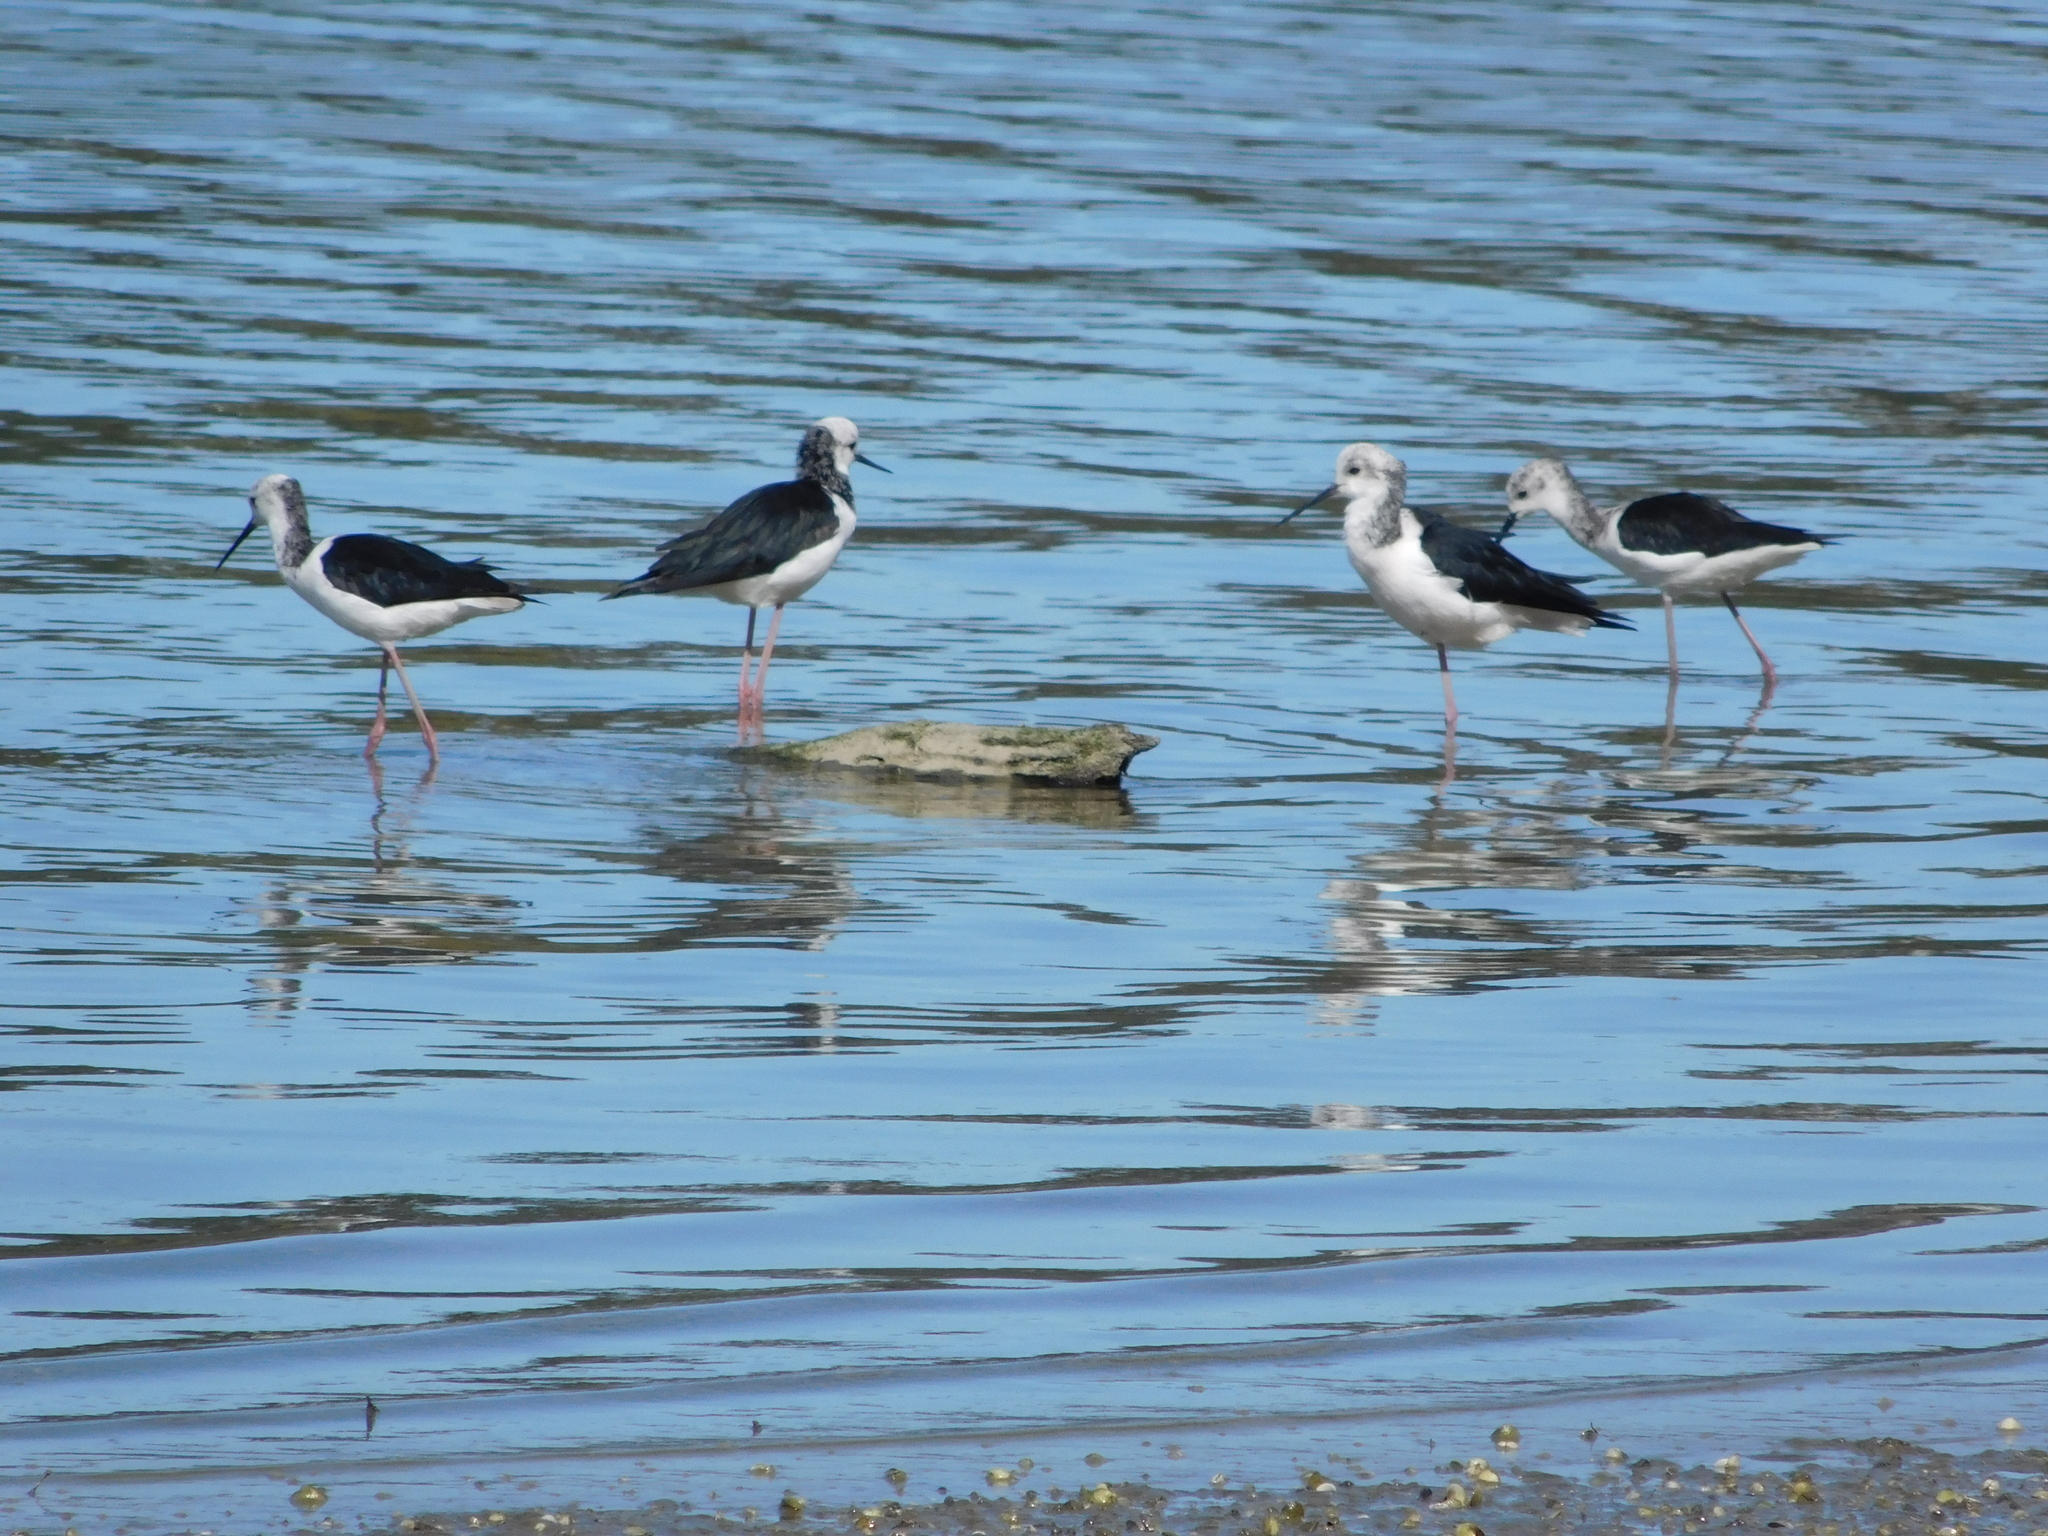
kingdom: Animalia
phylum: Chordata
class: Aves
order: Charadriiformes
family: Recurvirostridae
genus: Himantopus
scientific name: Himantopus leucocephalus
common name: White-headed stilt
